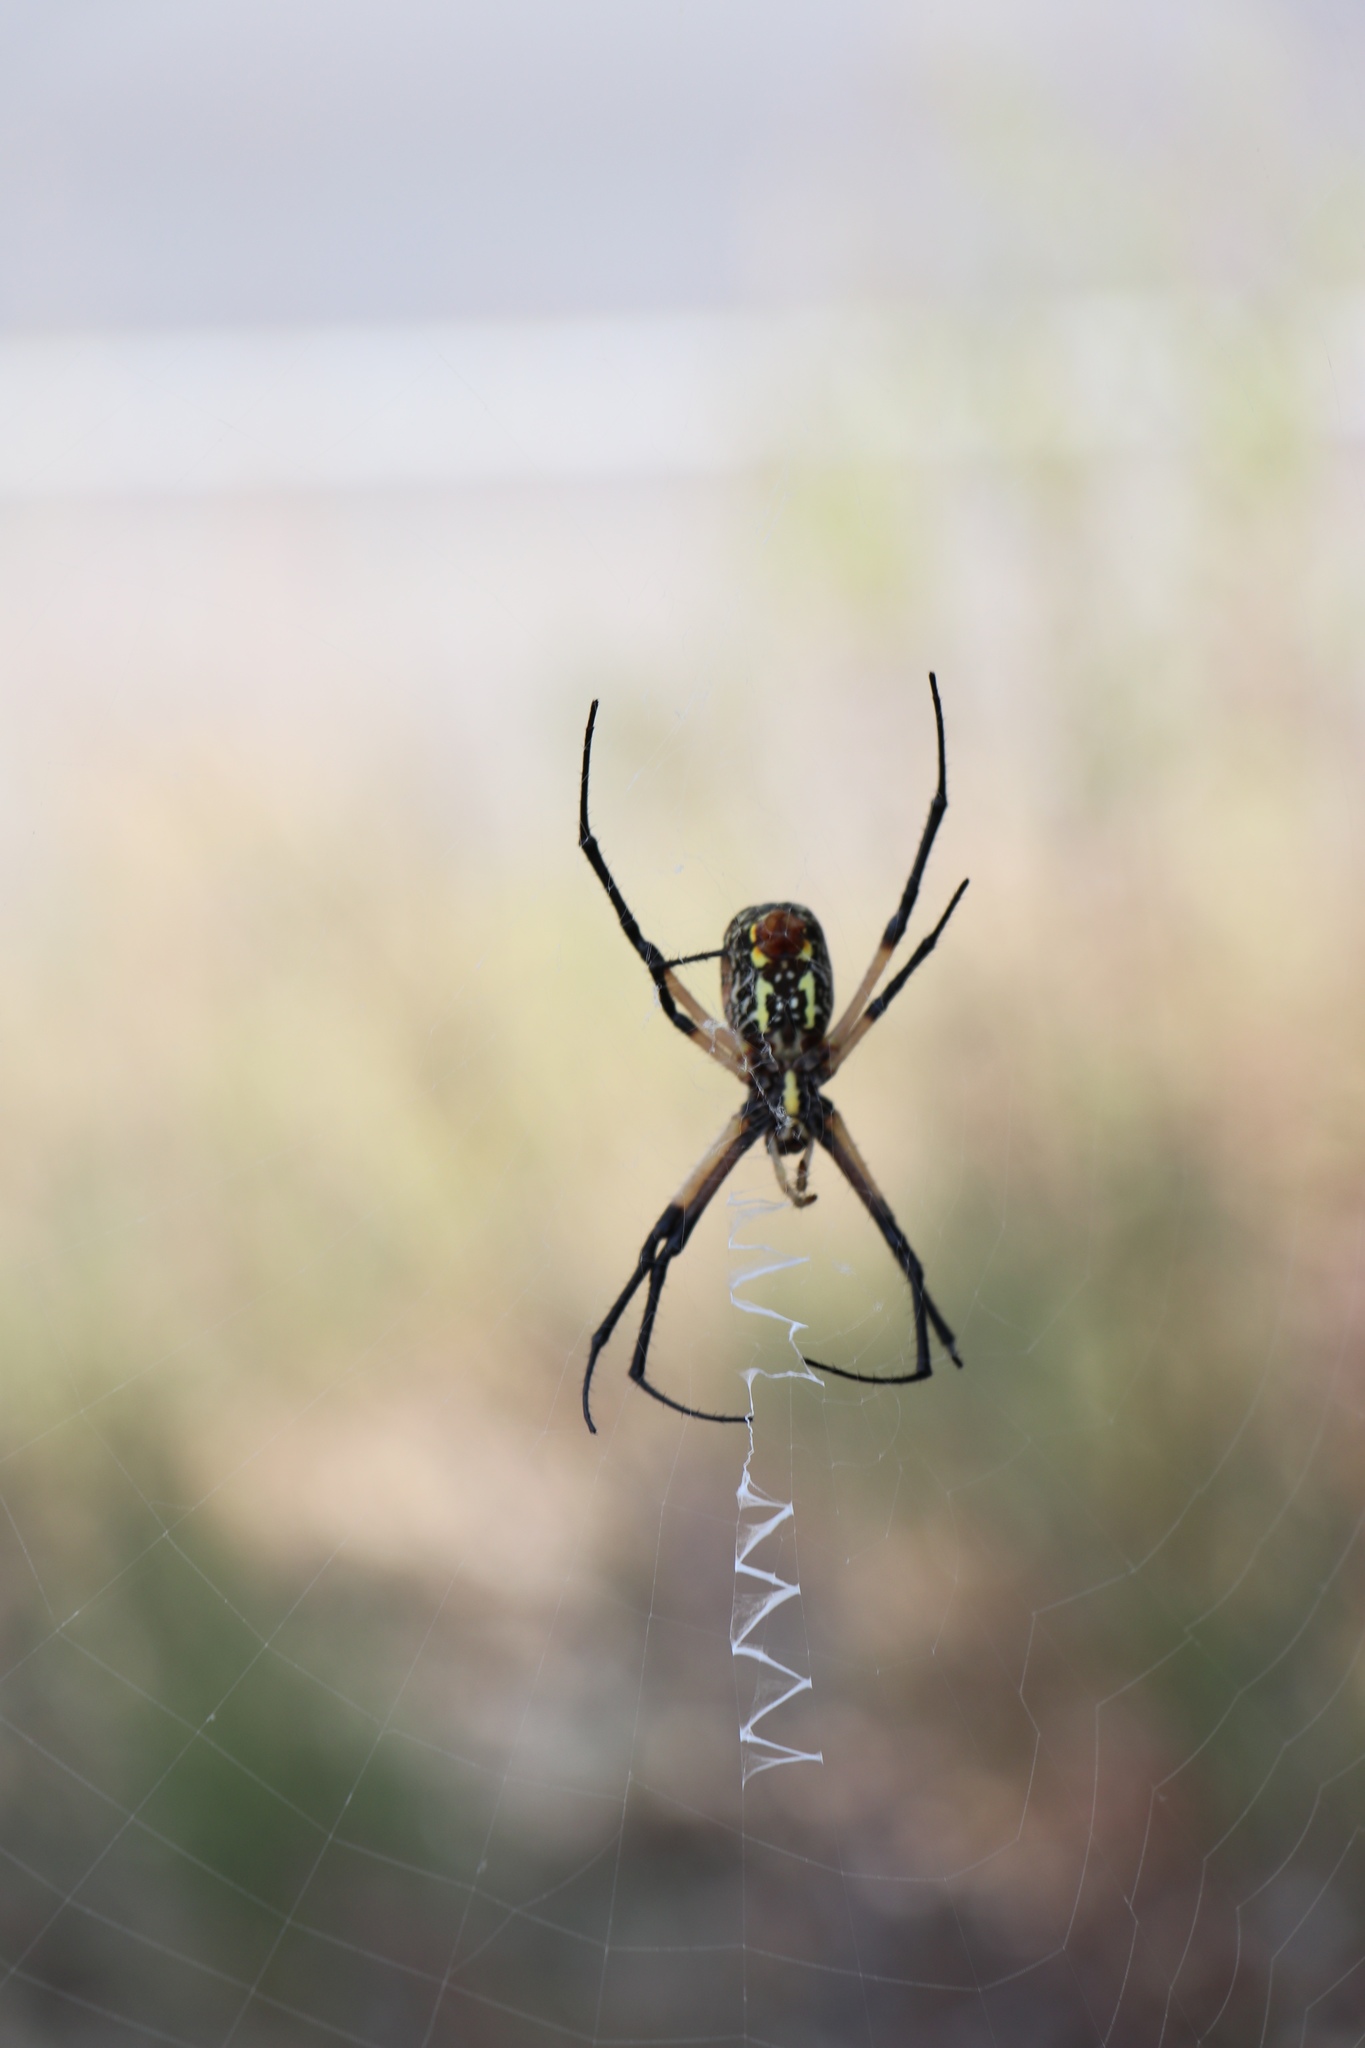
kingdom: Animalia
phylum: Arthropoda
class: Arachnida
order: Araneae
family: Araneidae
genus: Argiope
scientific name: Argiope aurantia
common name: Orb weavers
